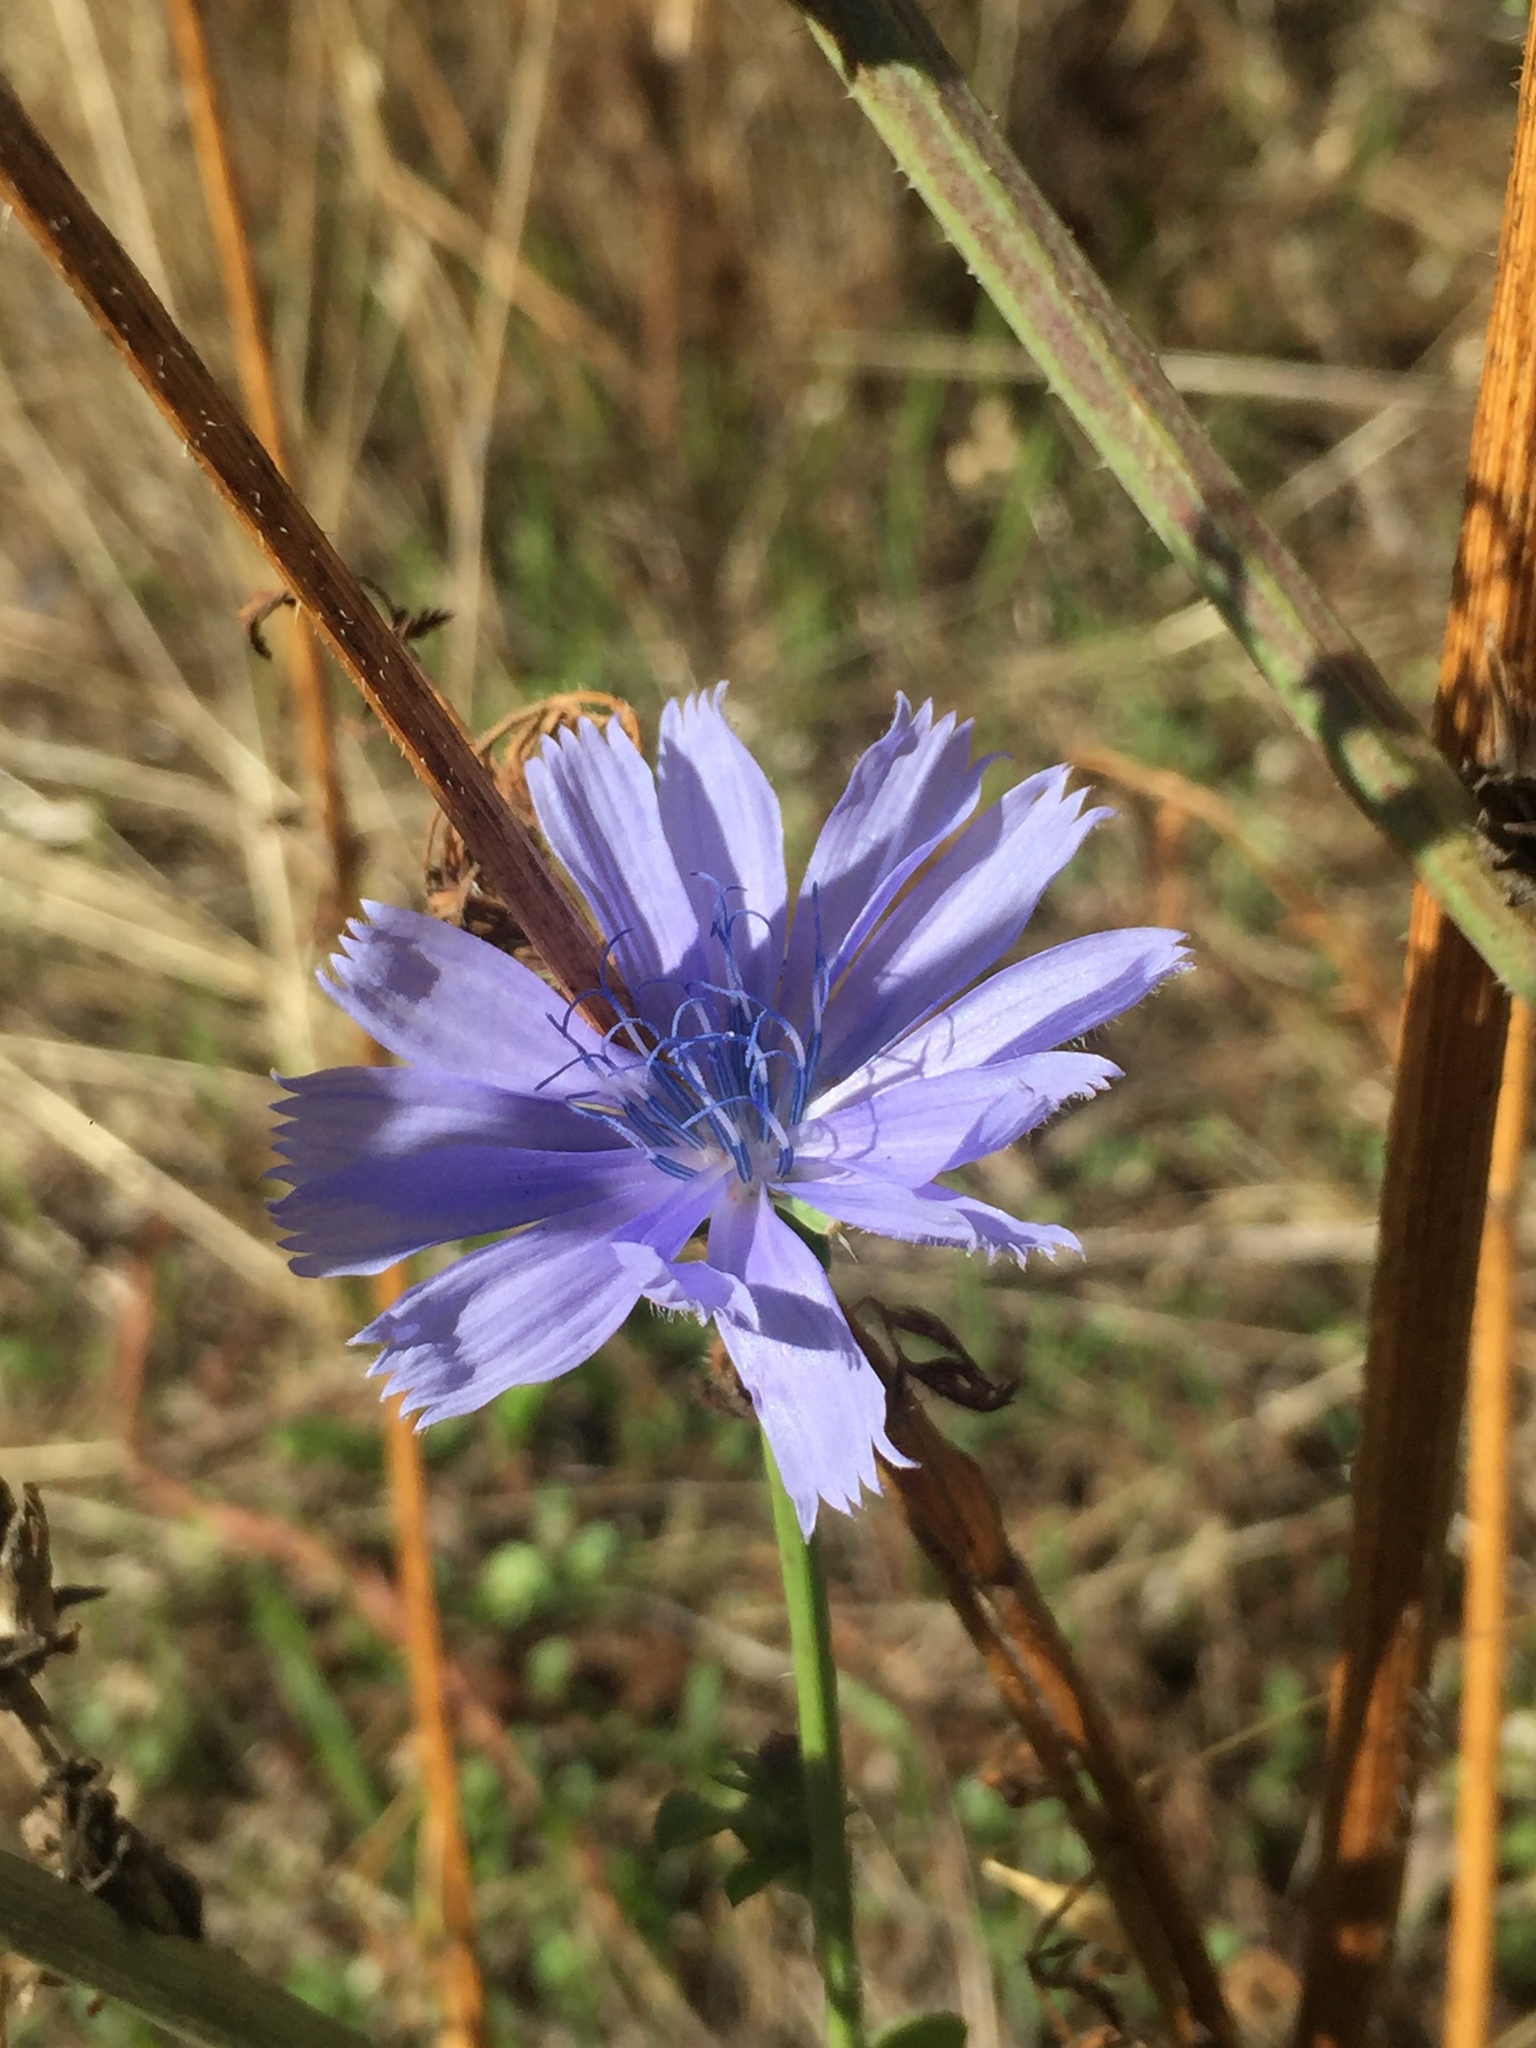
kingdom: Plantae
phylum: Tracheophyta
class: Magnoliopsida
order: Asterales
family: Asteraceae
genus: Cichorium
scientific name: Cichorium intybus
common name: Chicory
